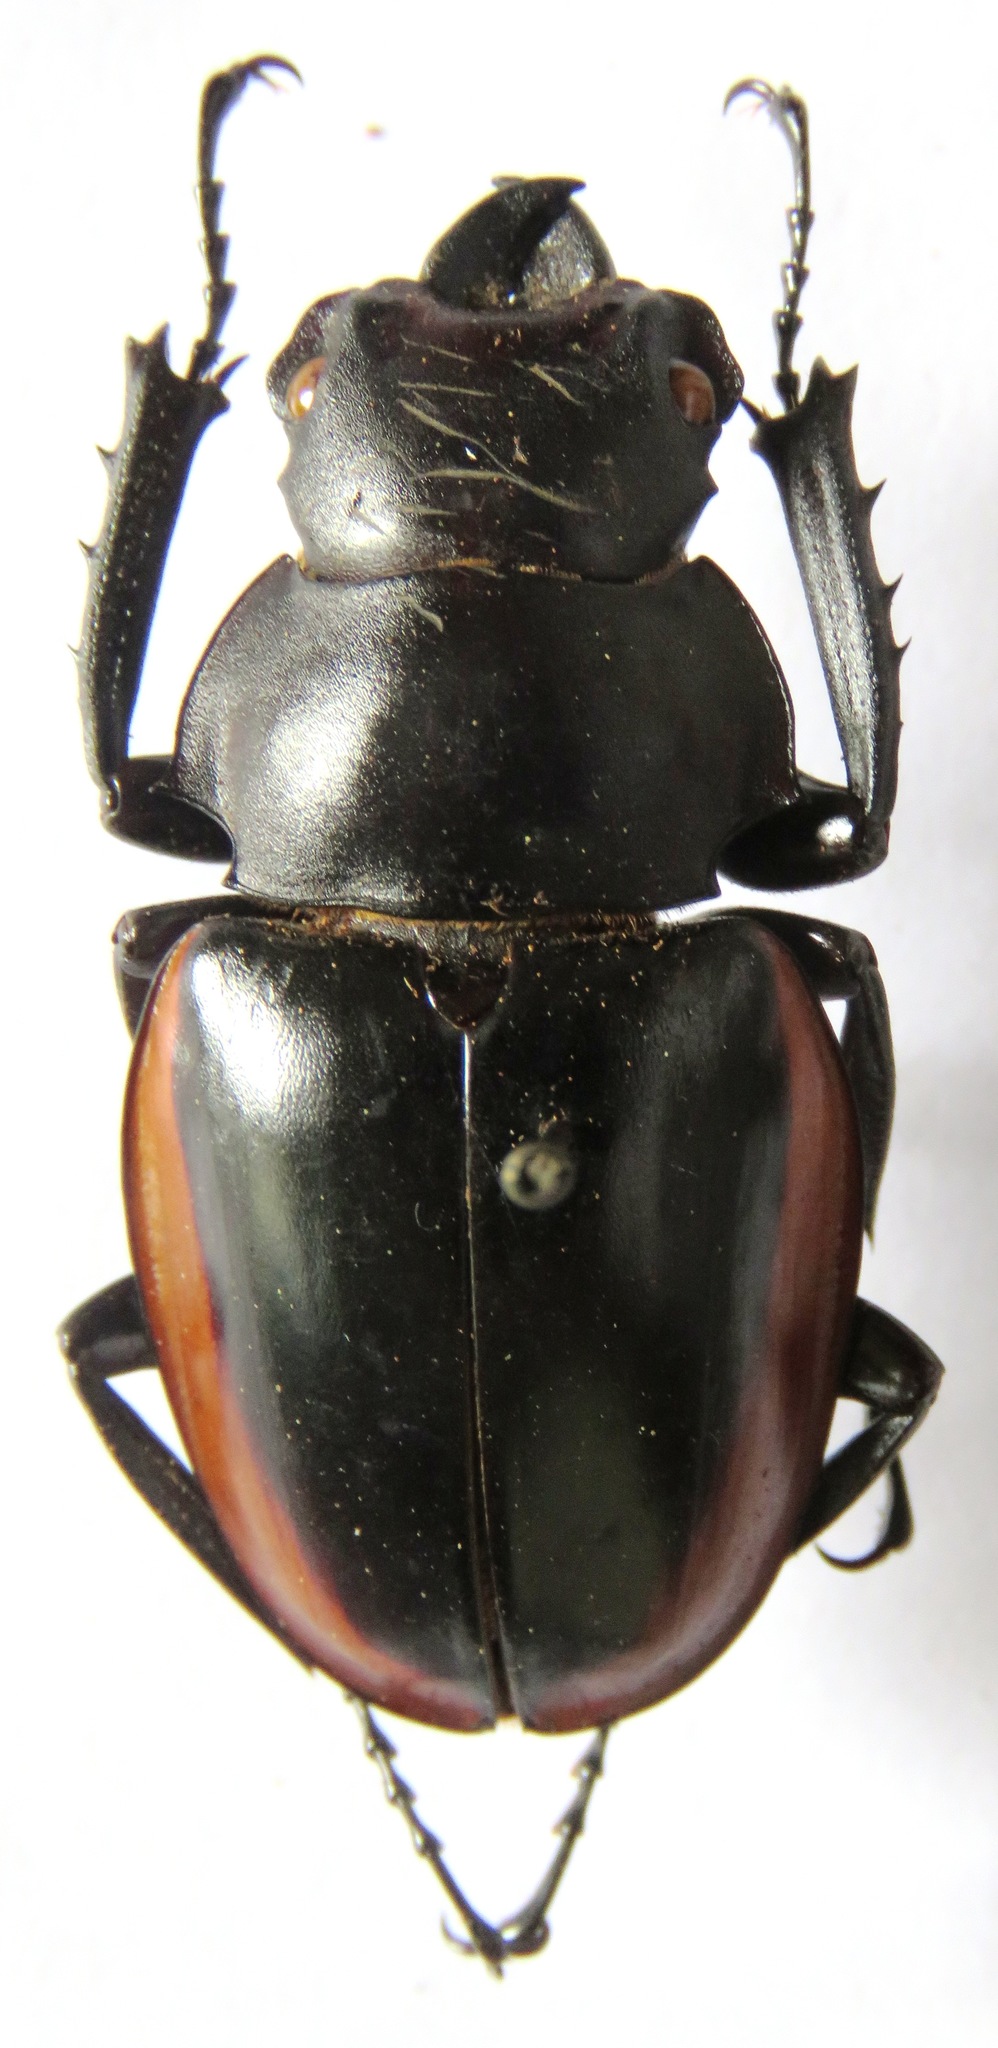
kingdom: Animalia
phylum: Arthropoda
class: Insecta
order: Coleoptera
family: Lucanidae
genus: Odontolabis
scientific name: Odontolabis cuvera
